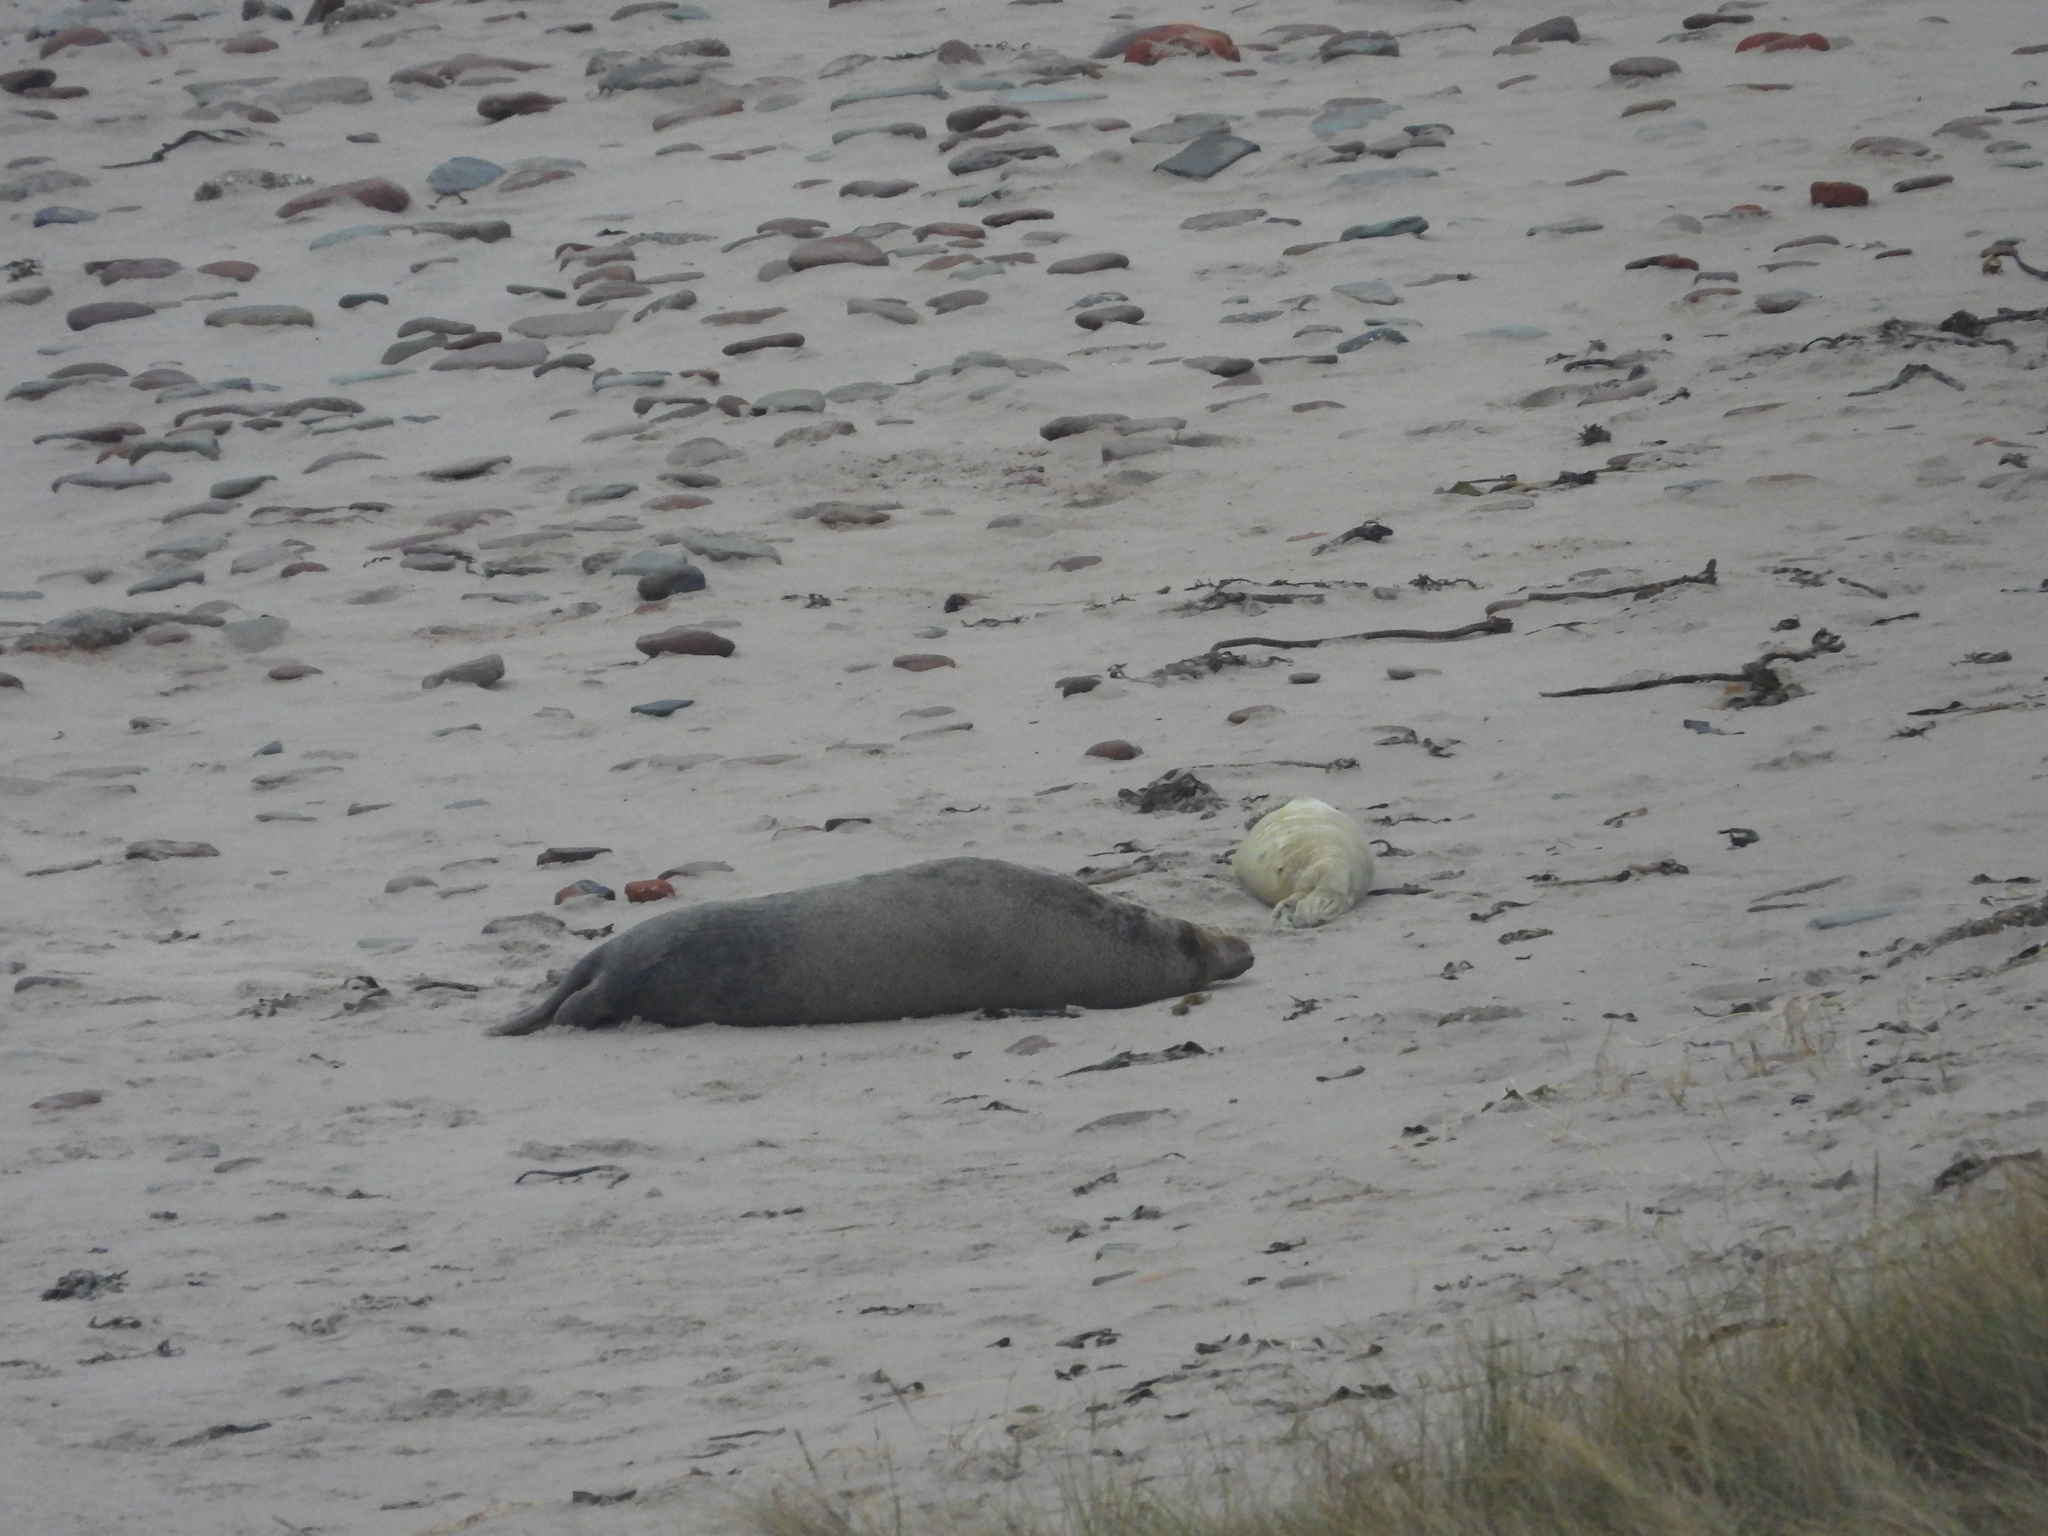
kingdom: Animalia
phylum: Chordata
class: Mammalia
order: Carnivora
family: Phocidae
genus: Halichoerus
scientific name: Halichoerus grypus
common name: Grey seal
